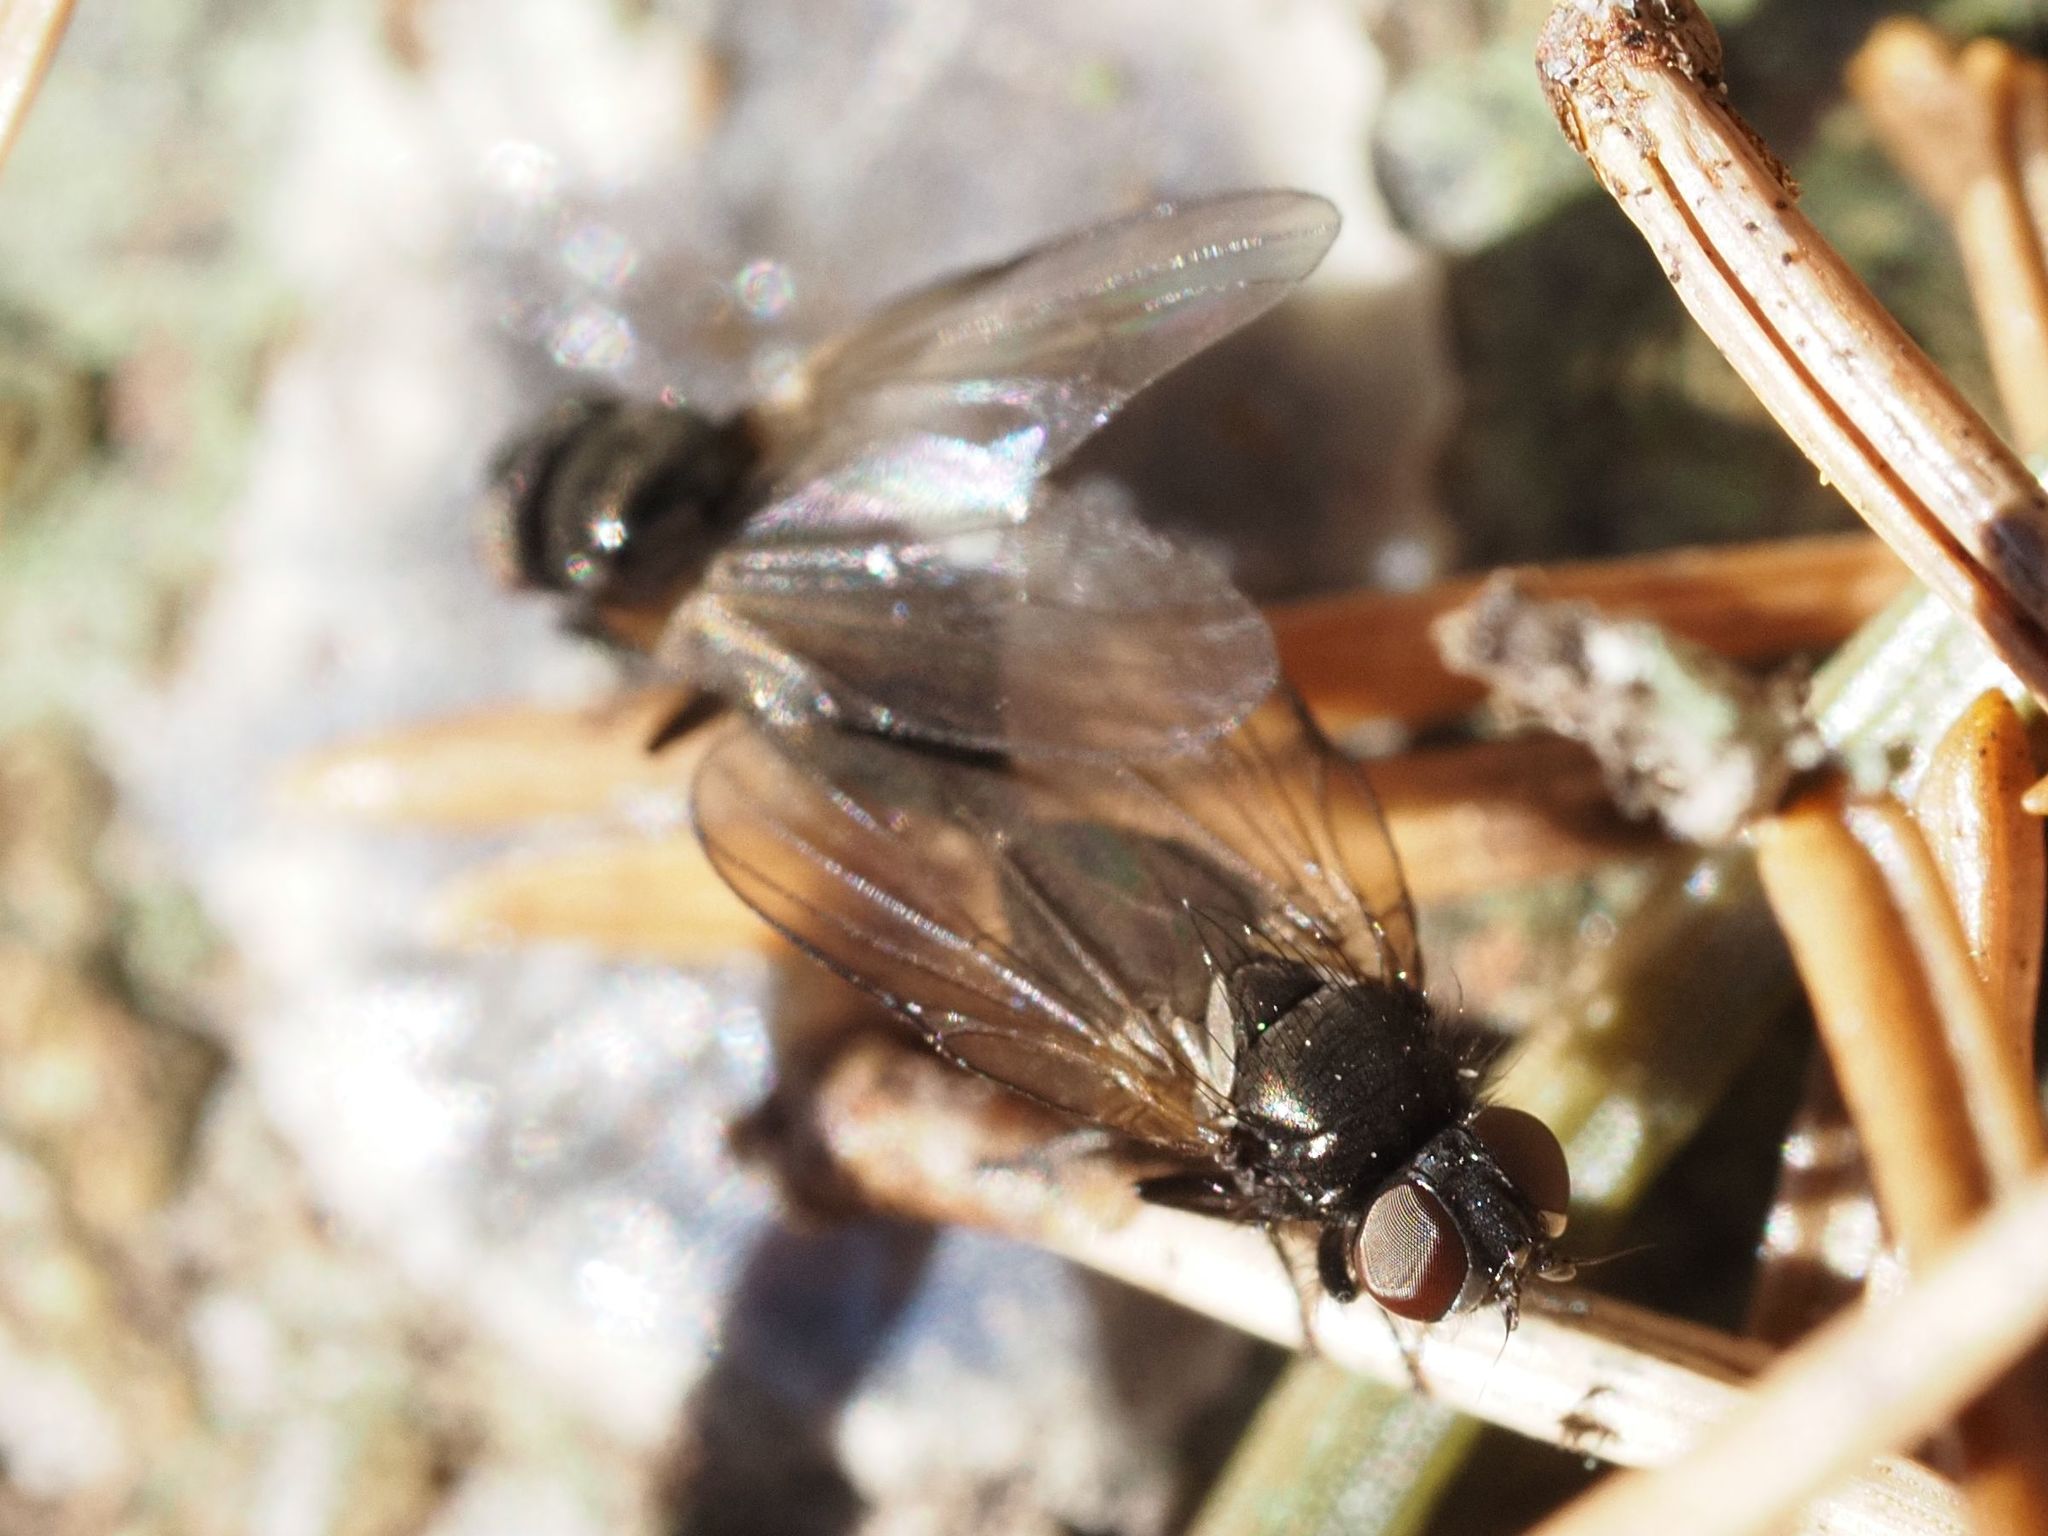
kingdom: Animalia
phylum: Arthropoda
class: Insecta
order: Diptera
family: Lonchaeidae
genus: Earomyia
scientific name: Earomyia lonchaeoides
